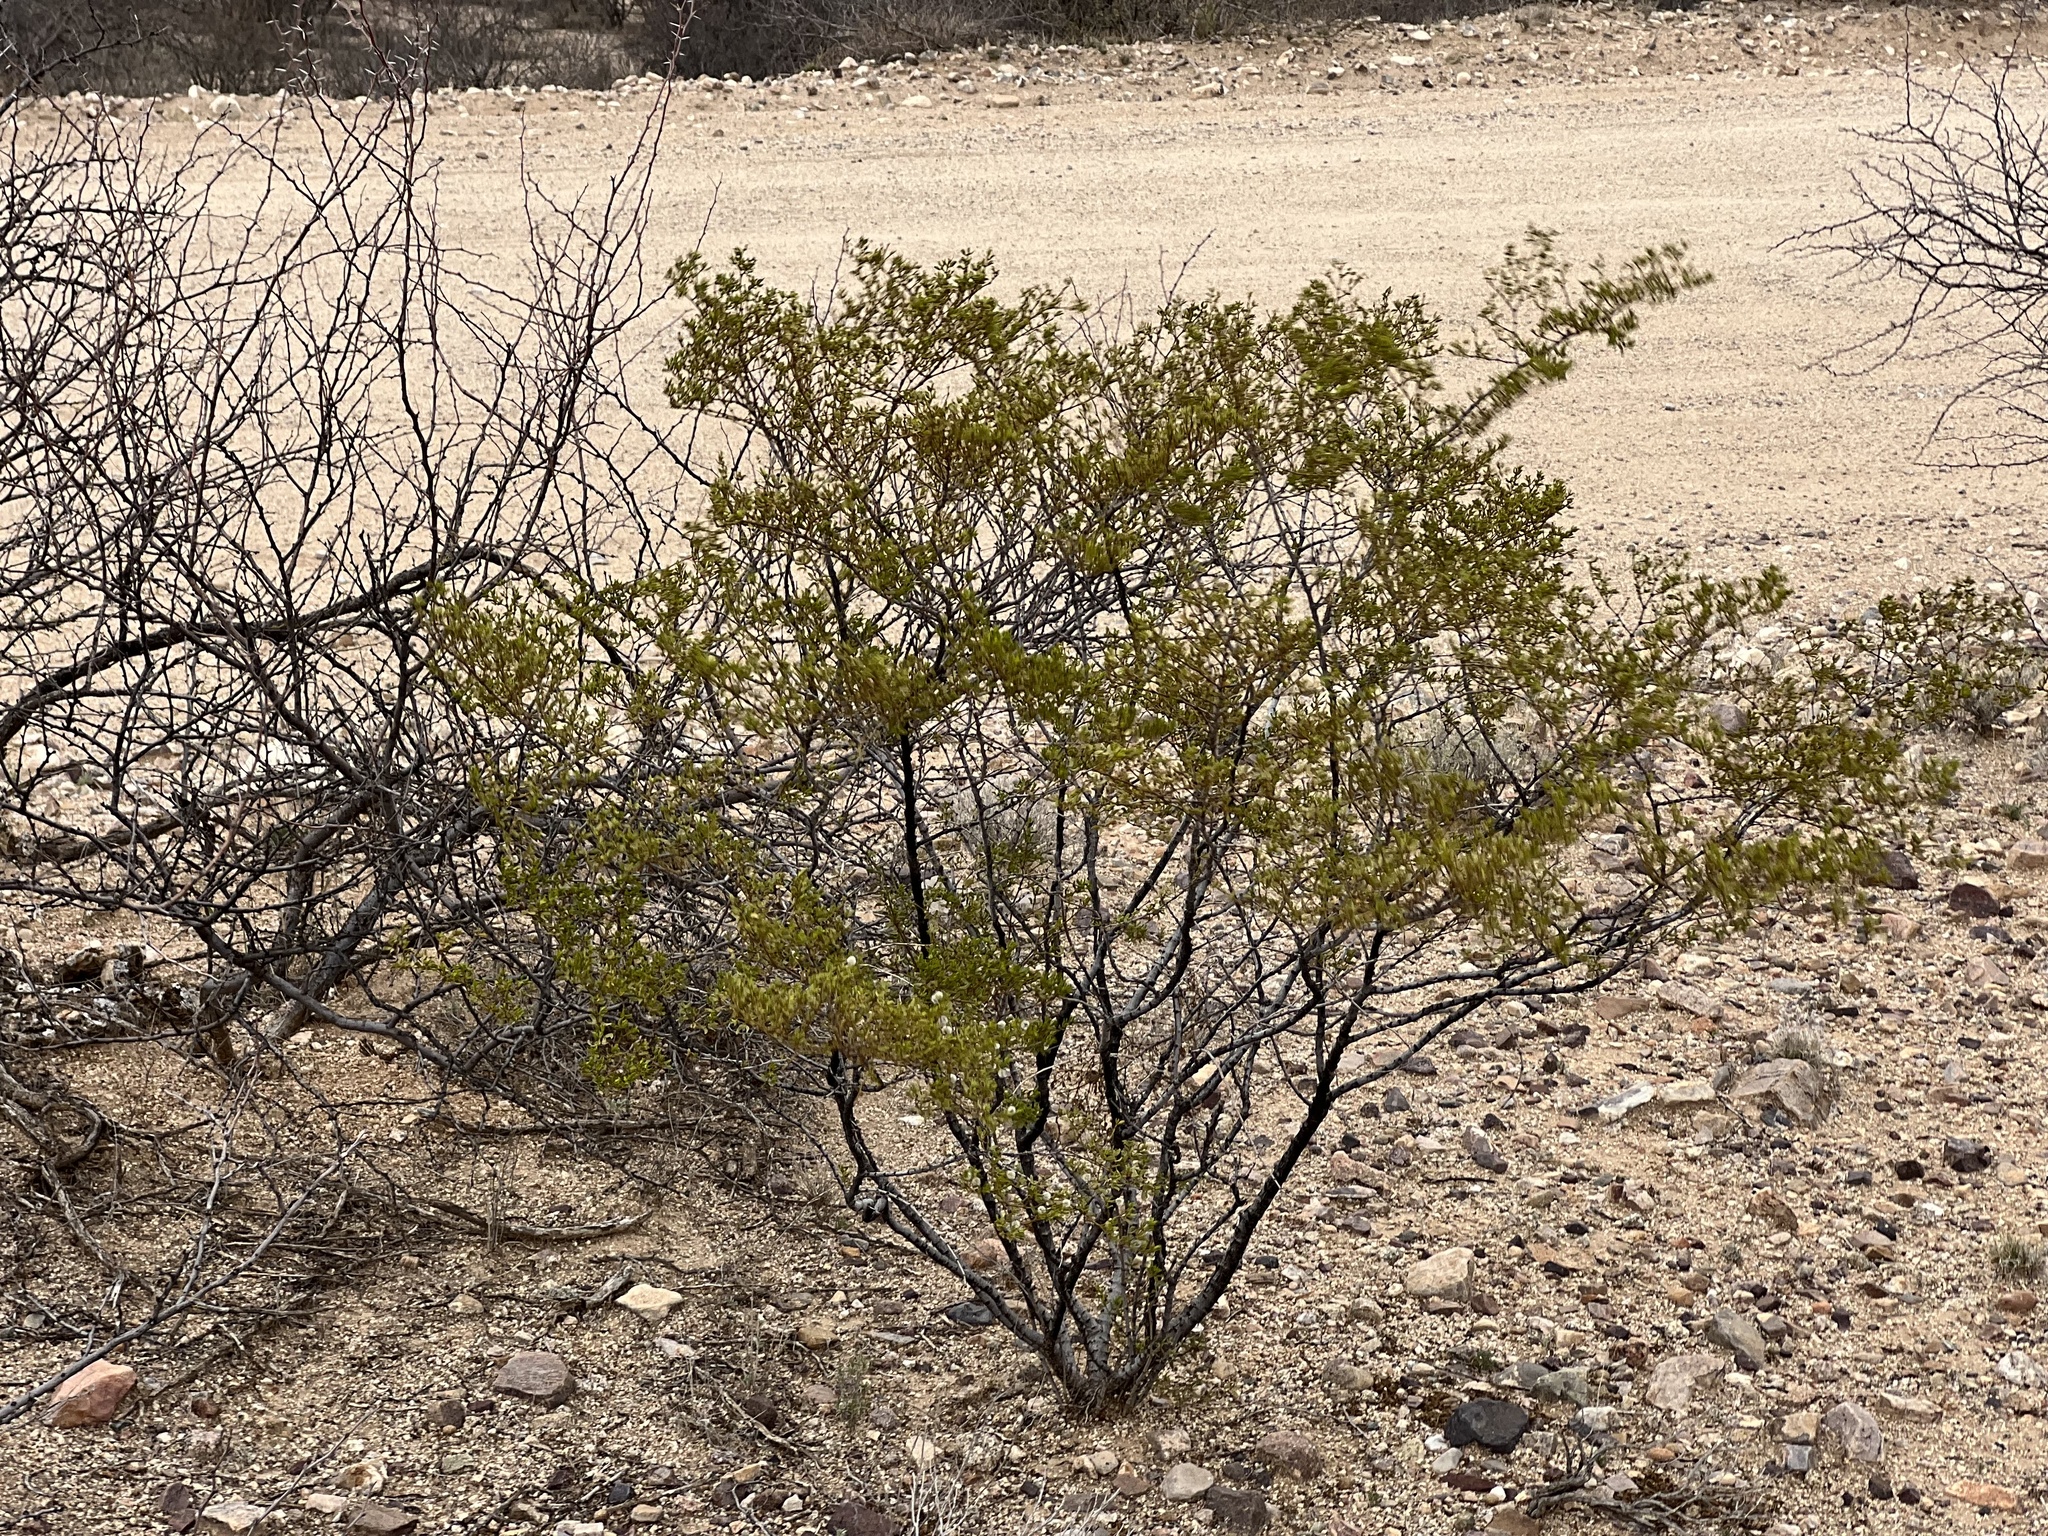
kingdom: Plantae
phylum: Tracheophyta
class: Magnoliopsida
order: Zygophyllales
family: Zygophyllaceae
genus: Larrea
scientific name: Larrea tridentata
